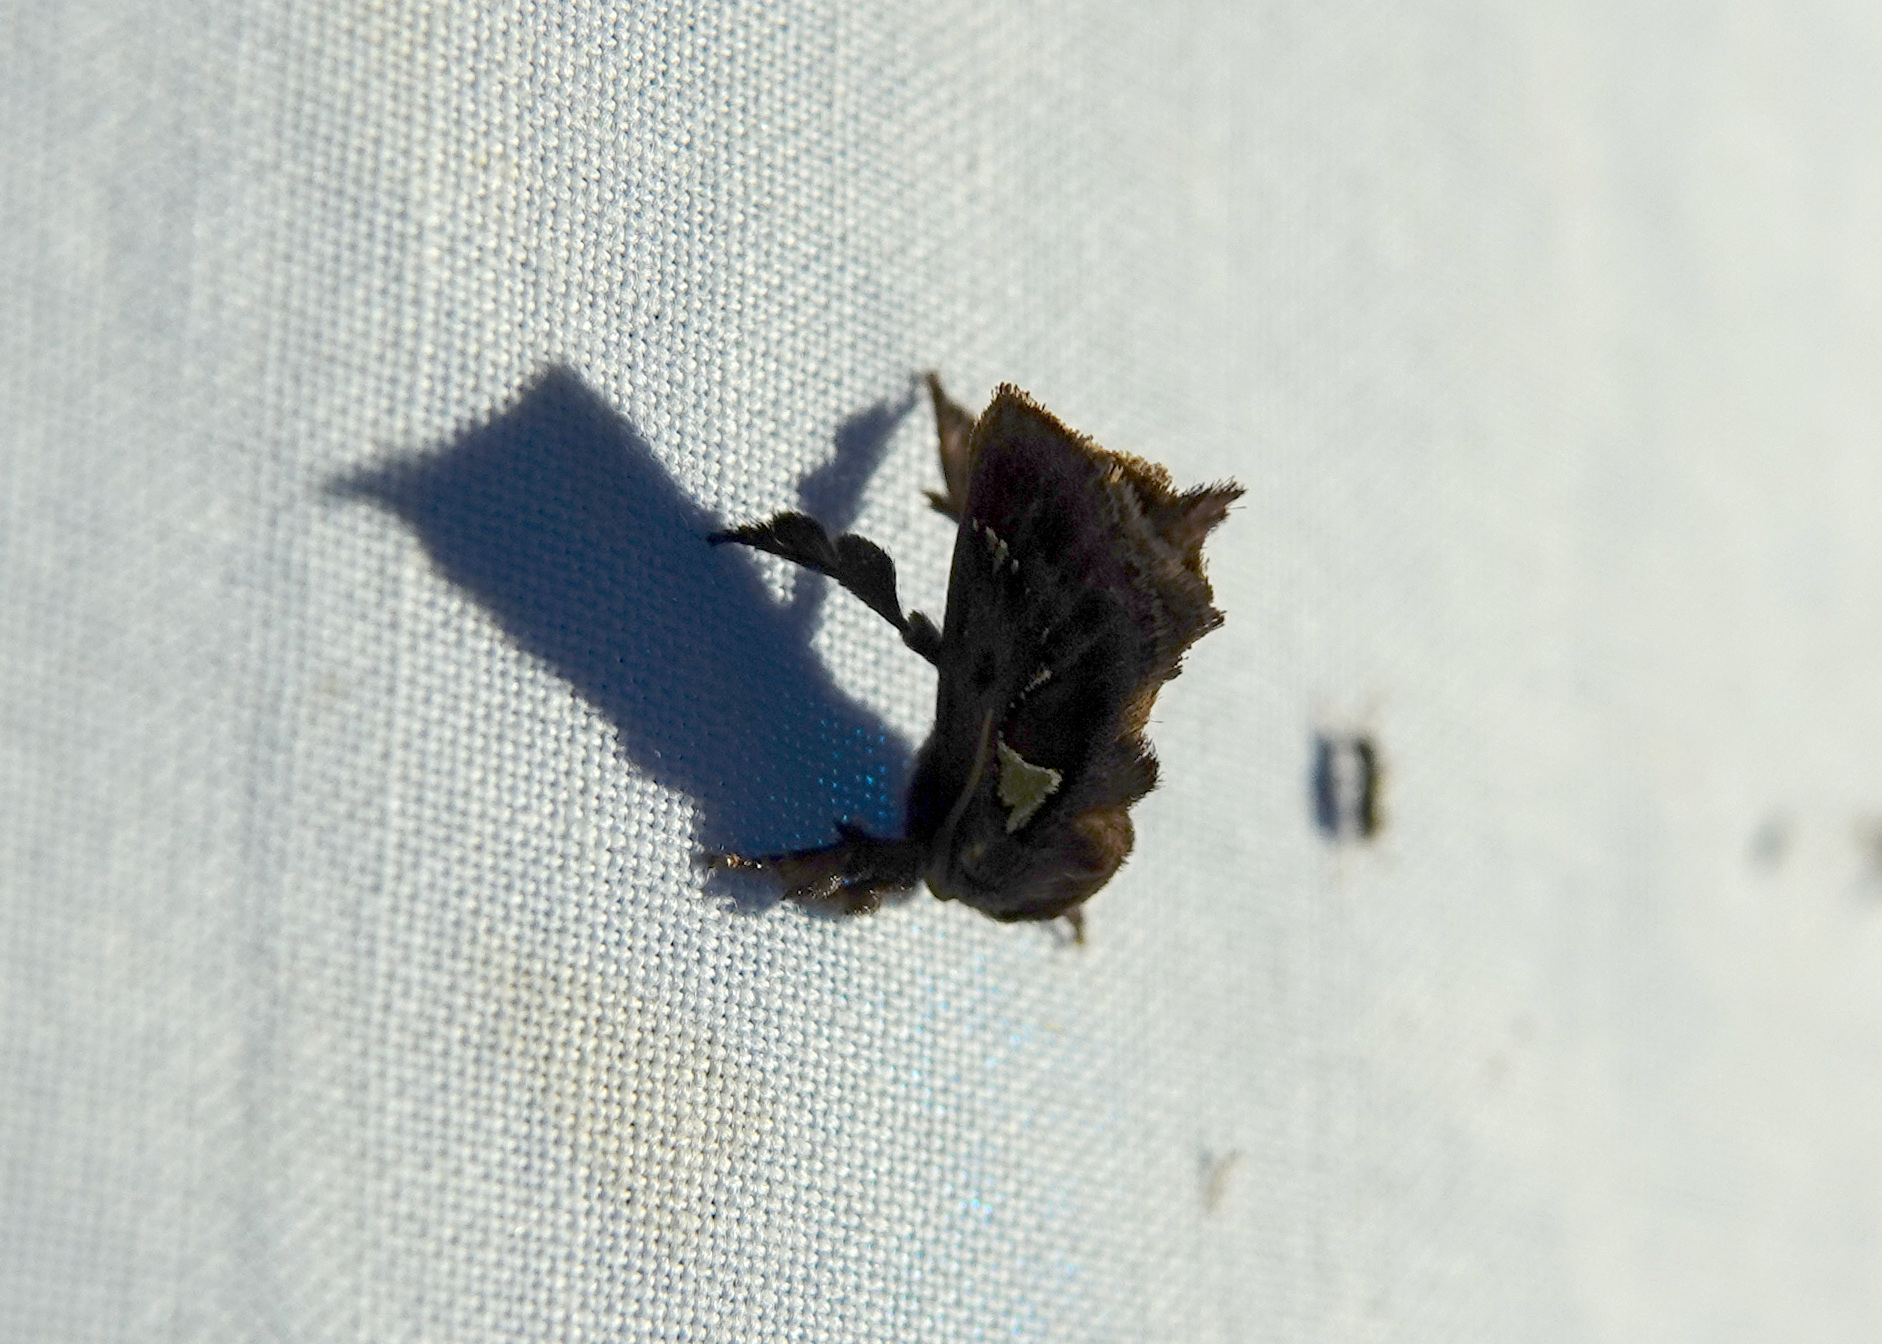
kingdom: Animalia
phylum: Arthropoda
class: Insecta
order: Lepidoptera
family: Limacodidae
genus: Euclea
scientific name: Euclea delphinii
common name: Spiny oak-slug moth
